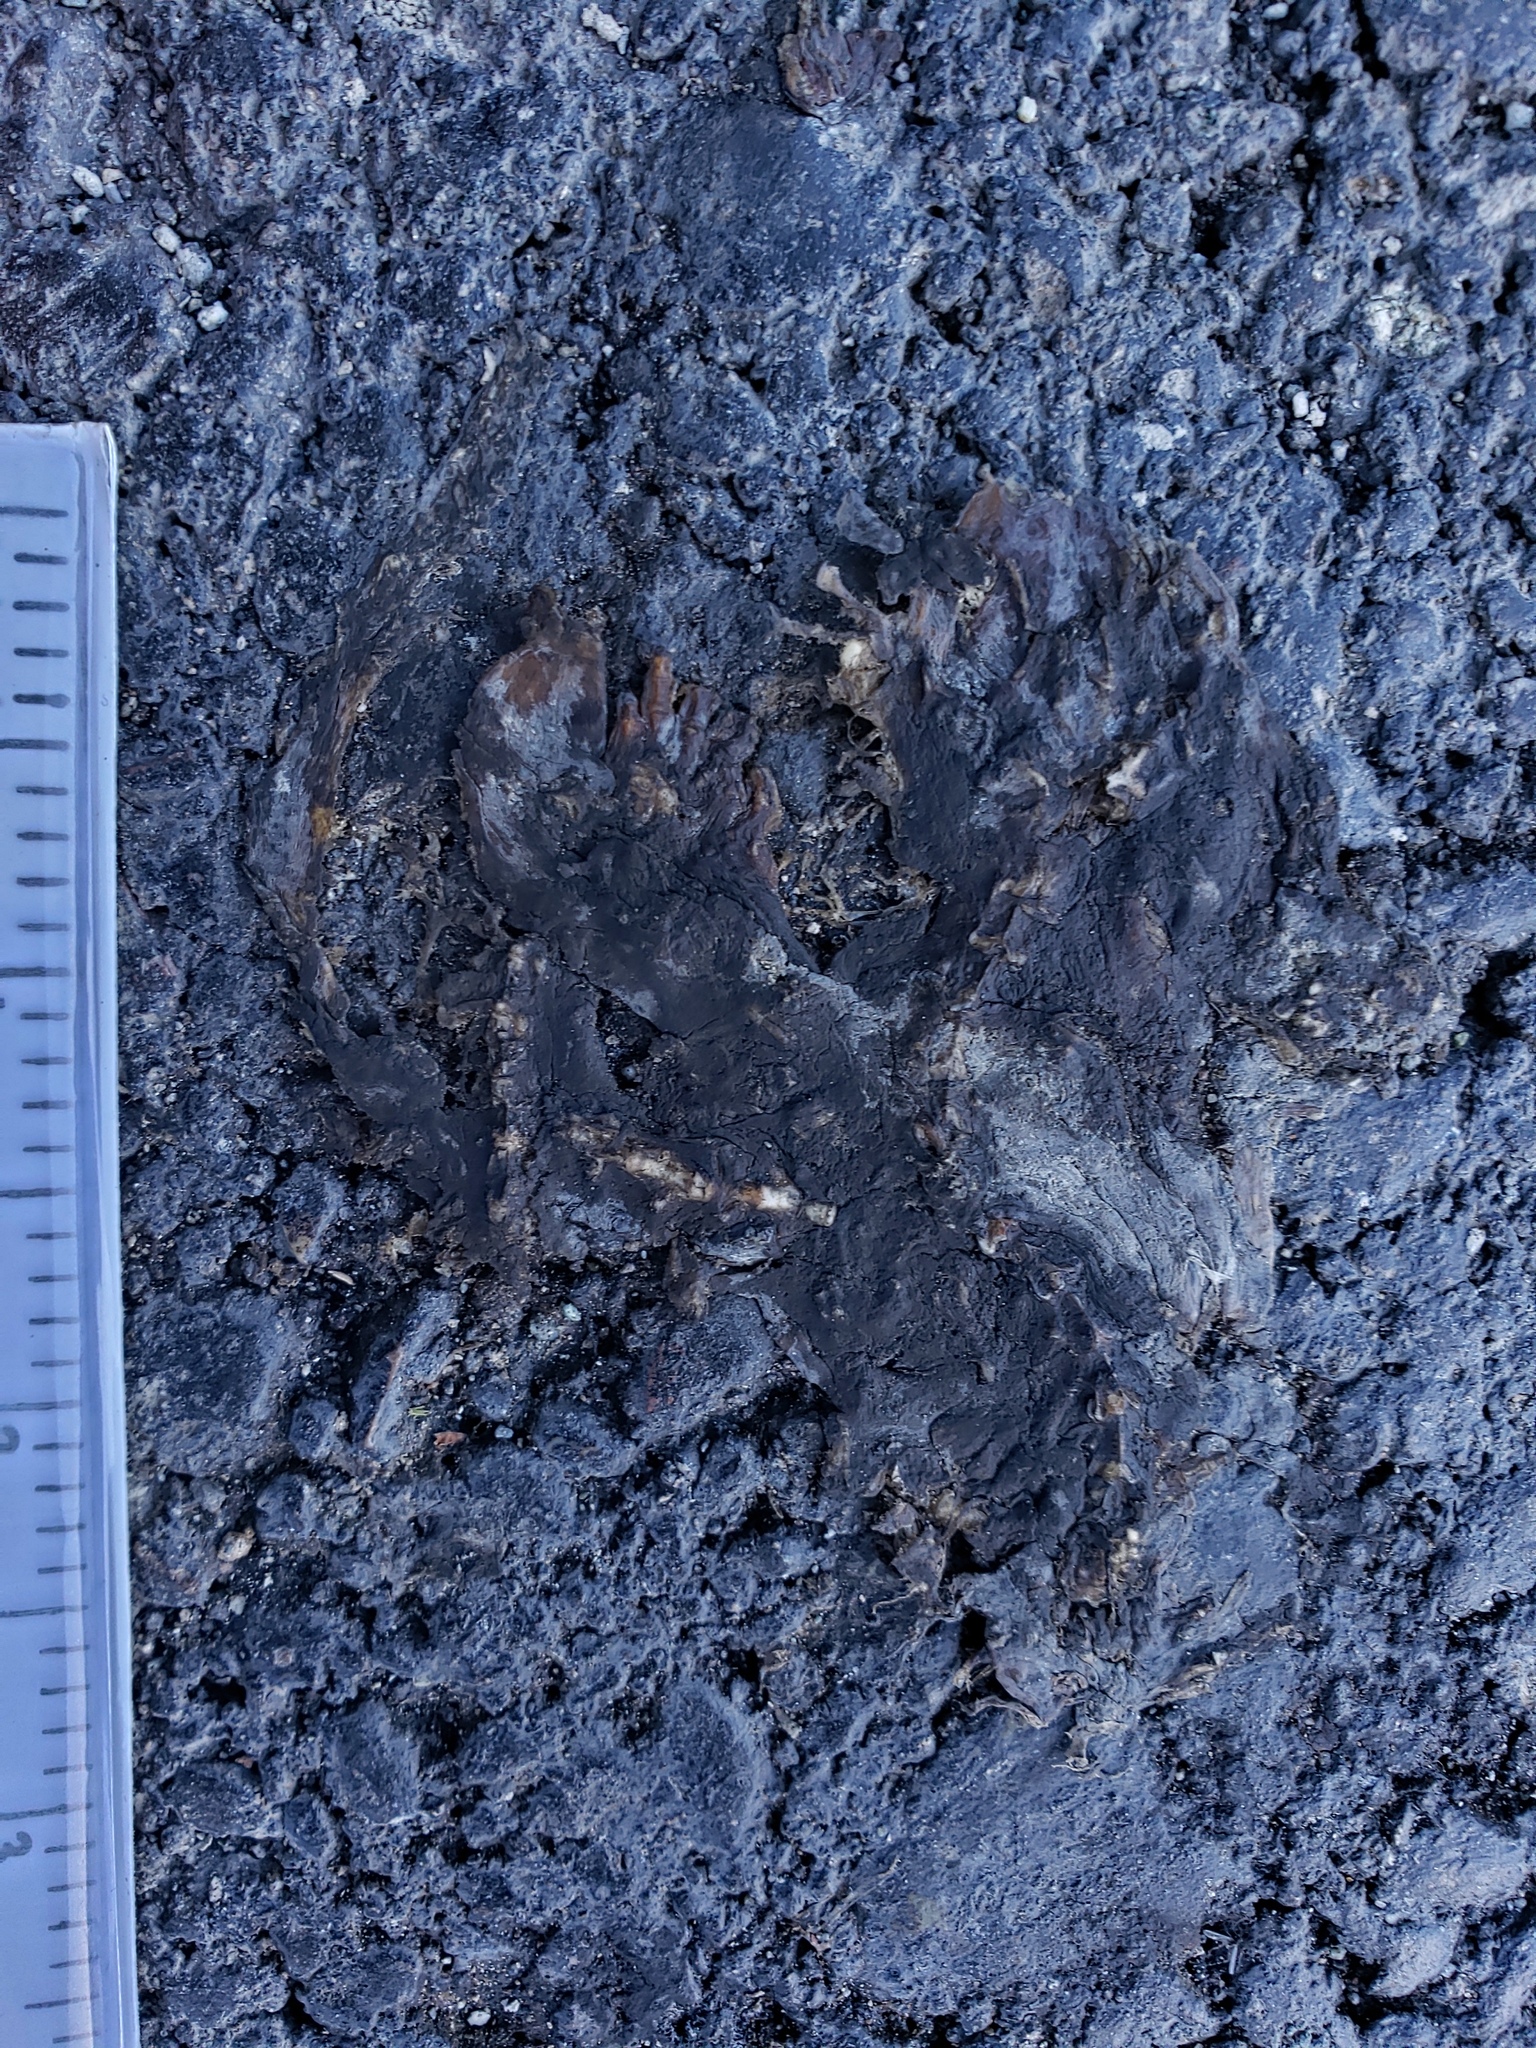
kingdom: Animalia
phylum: Chordata
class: Amphibia
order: Caudata
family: Salamandridae
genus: Taricha
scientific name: Taricha
